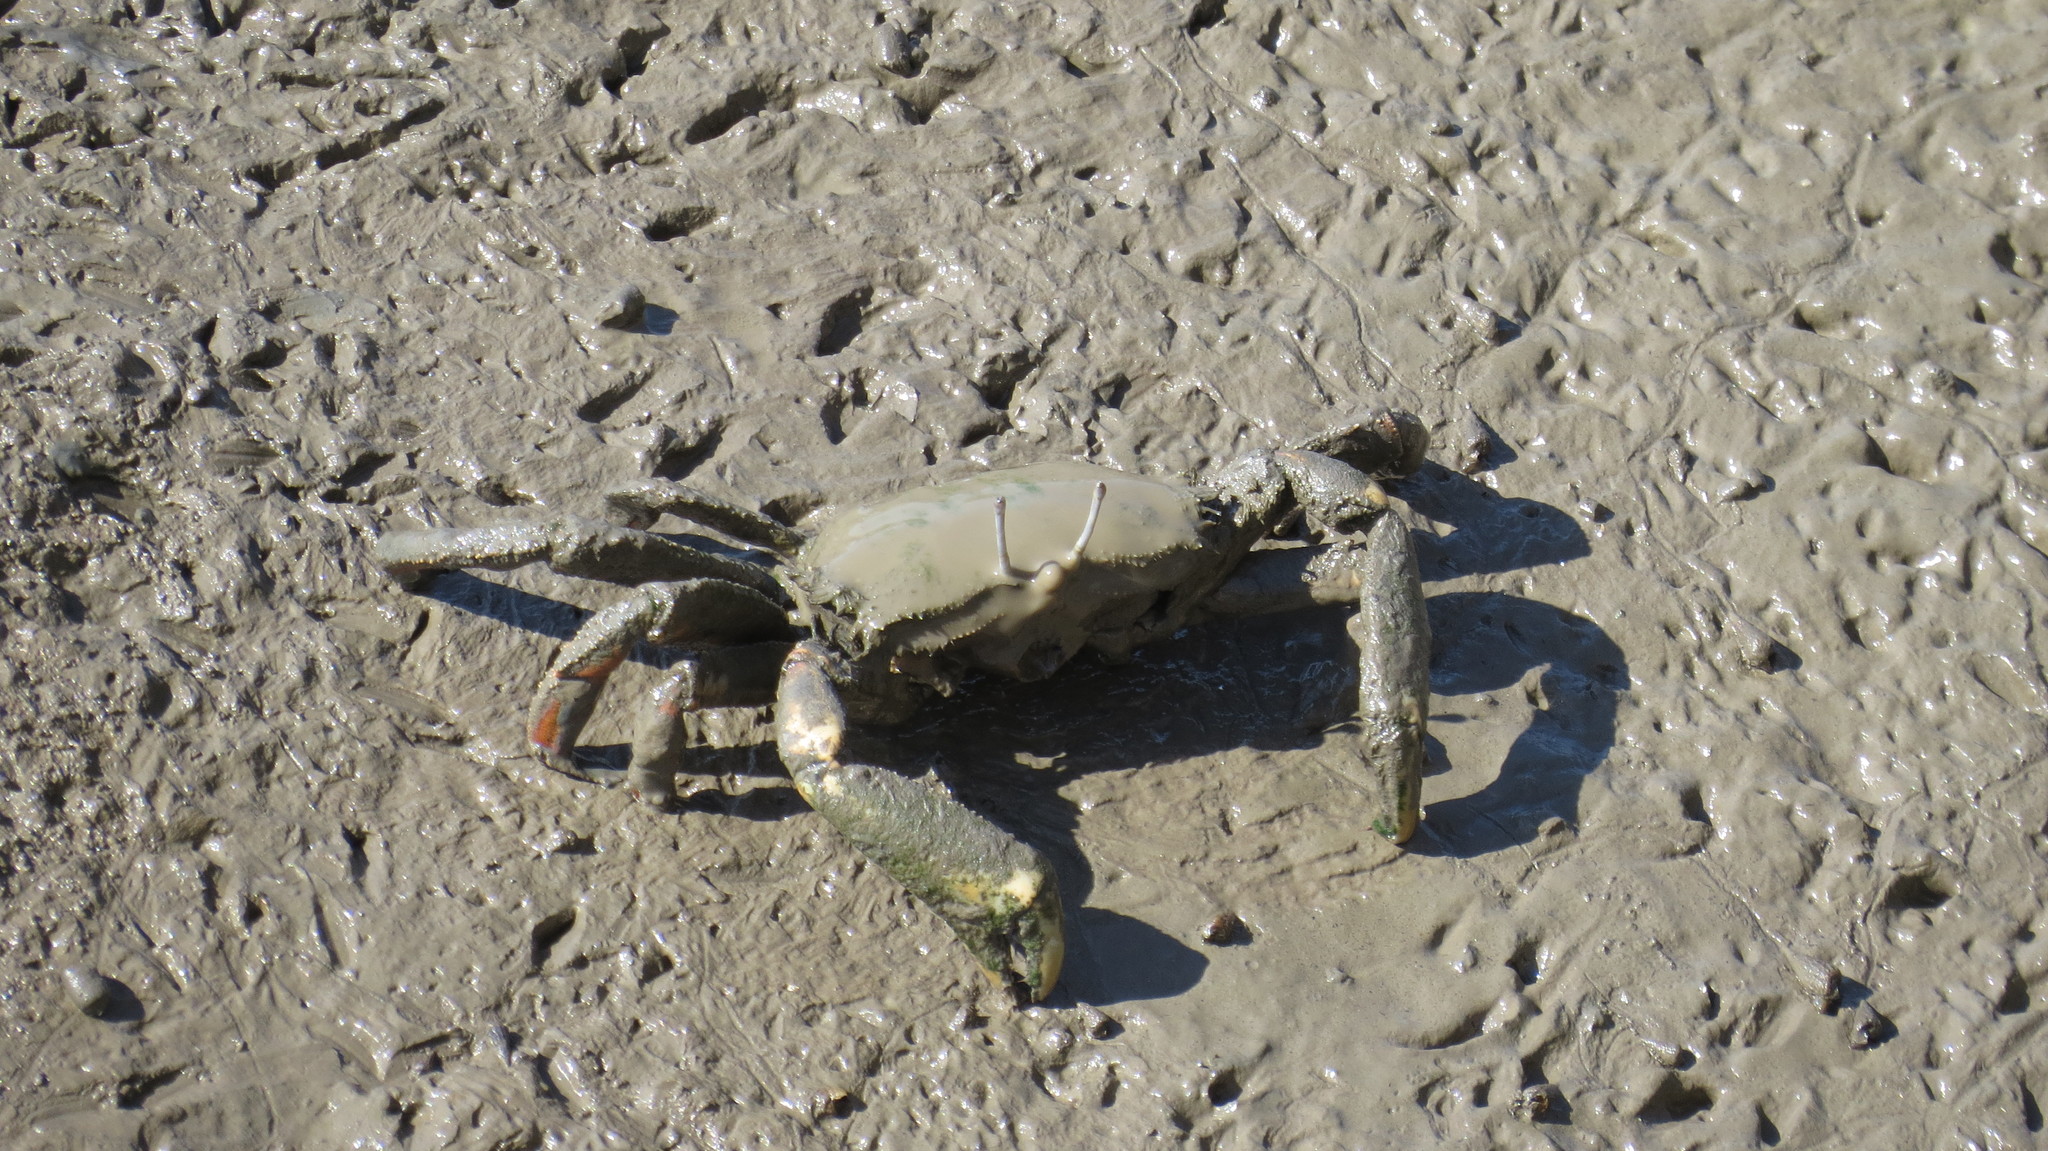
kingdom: Animalia
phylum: Arthropoda
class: Malacostraca
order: Decapoda
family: Macrophthalmidae
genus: Venitus
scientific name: Venitus latreillei
